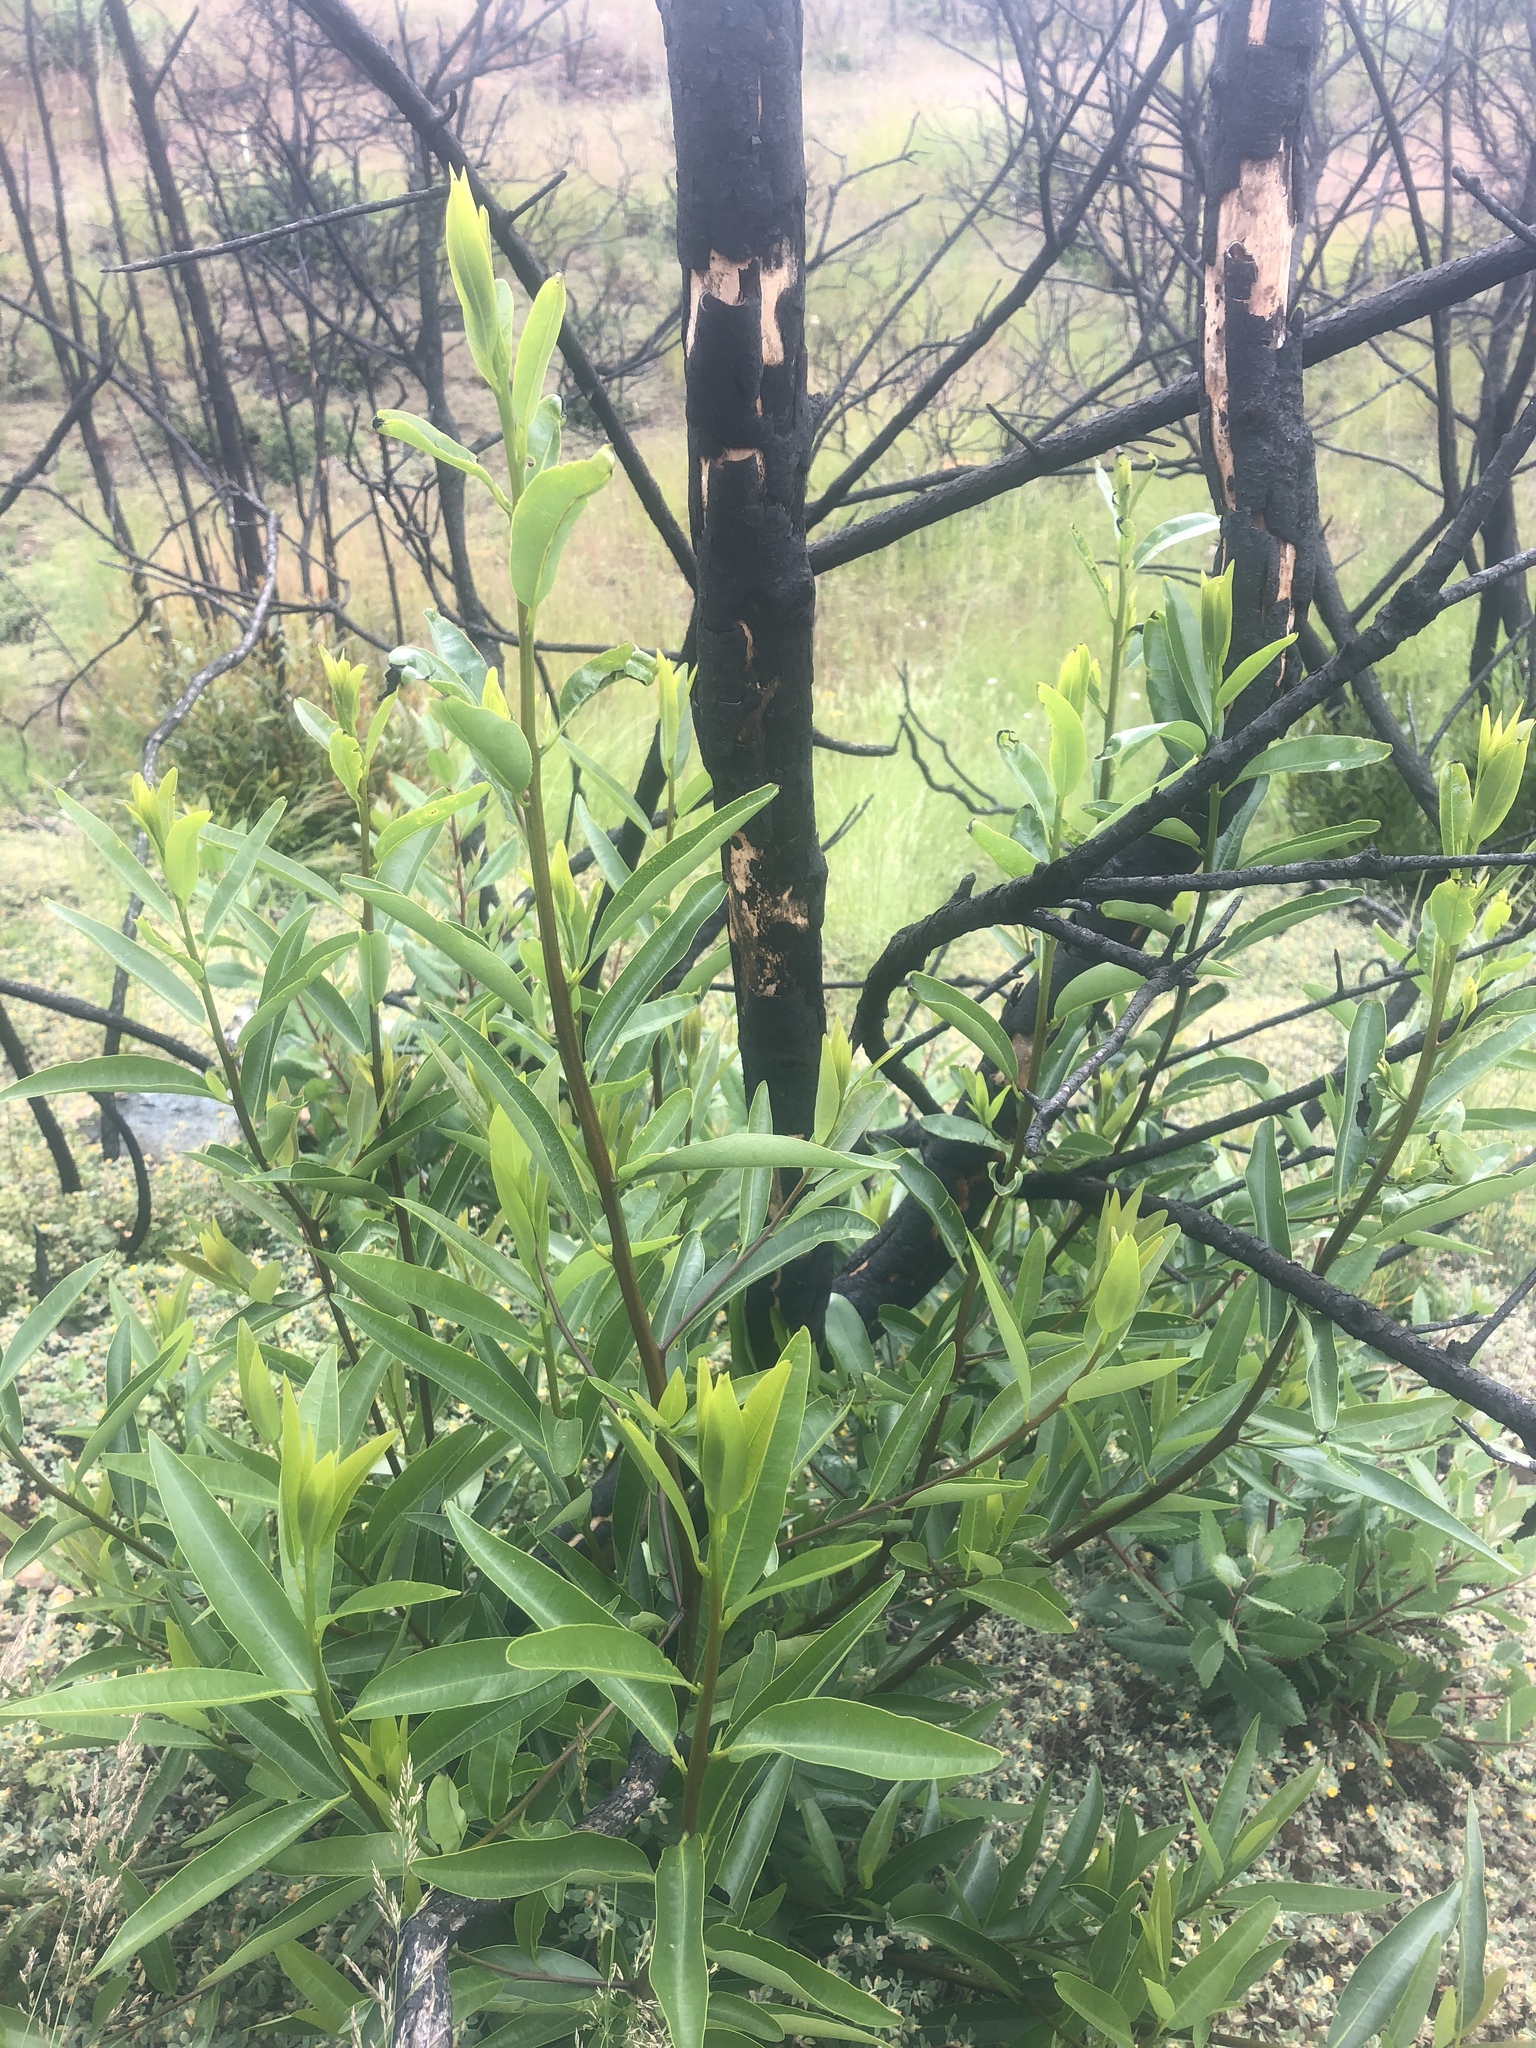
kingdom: Plantae
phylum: Tracheophyta
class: Magnoliopsida
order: Laurales
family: Lauraceae
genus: Umbellularia
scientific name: Umbellularia californica
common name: California bay
